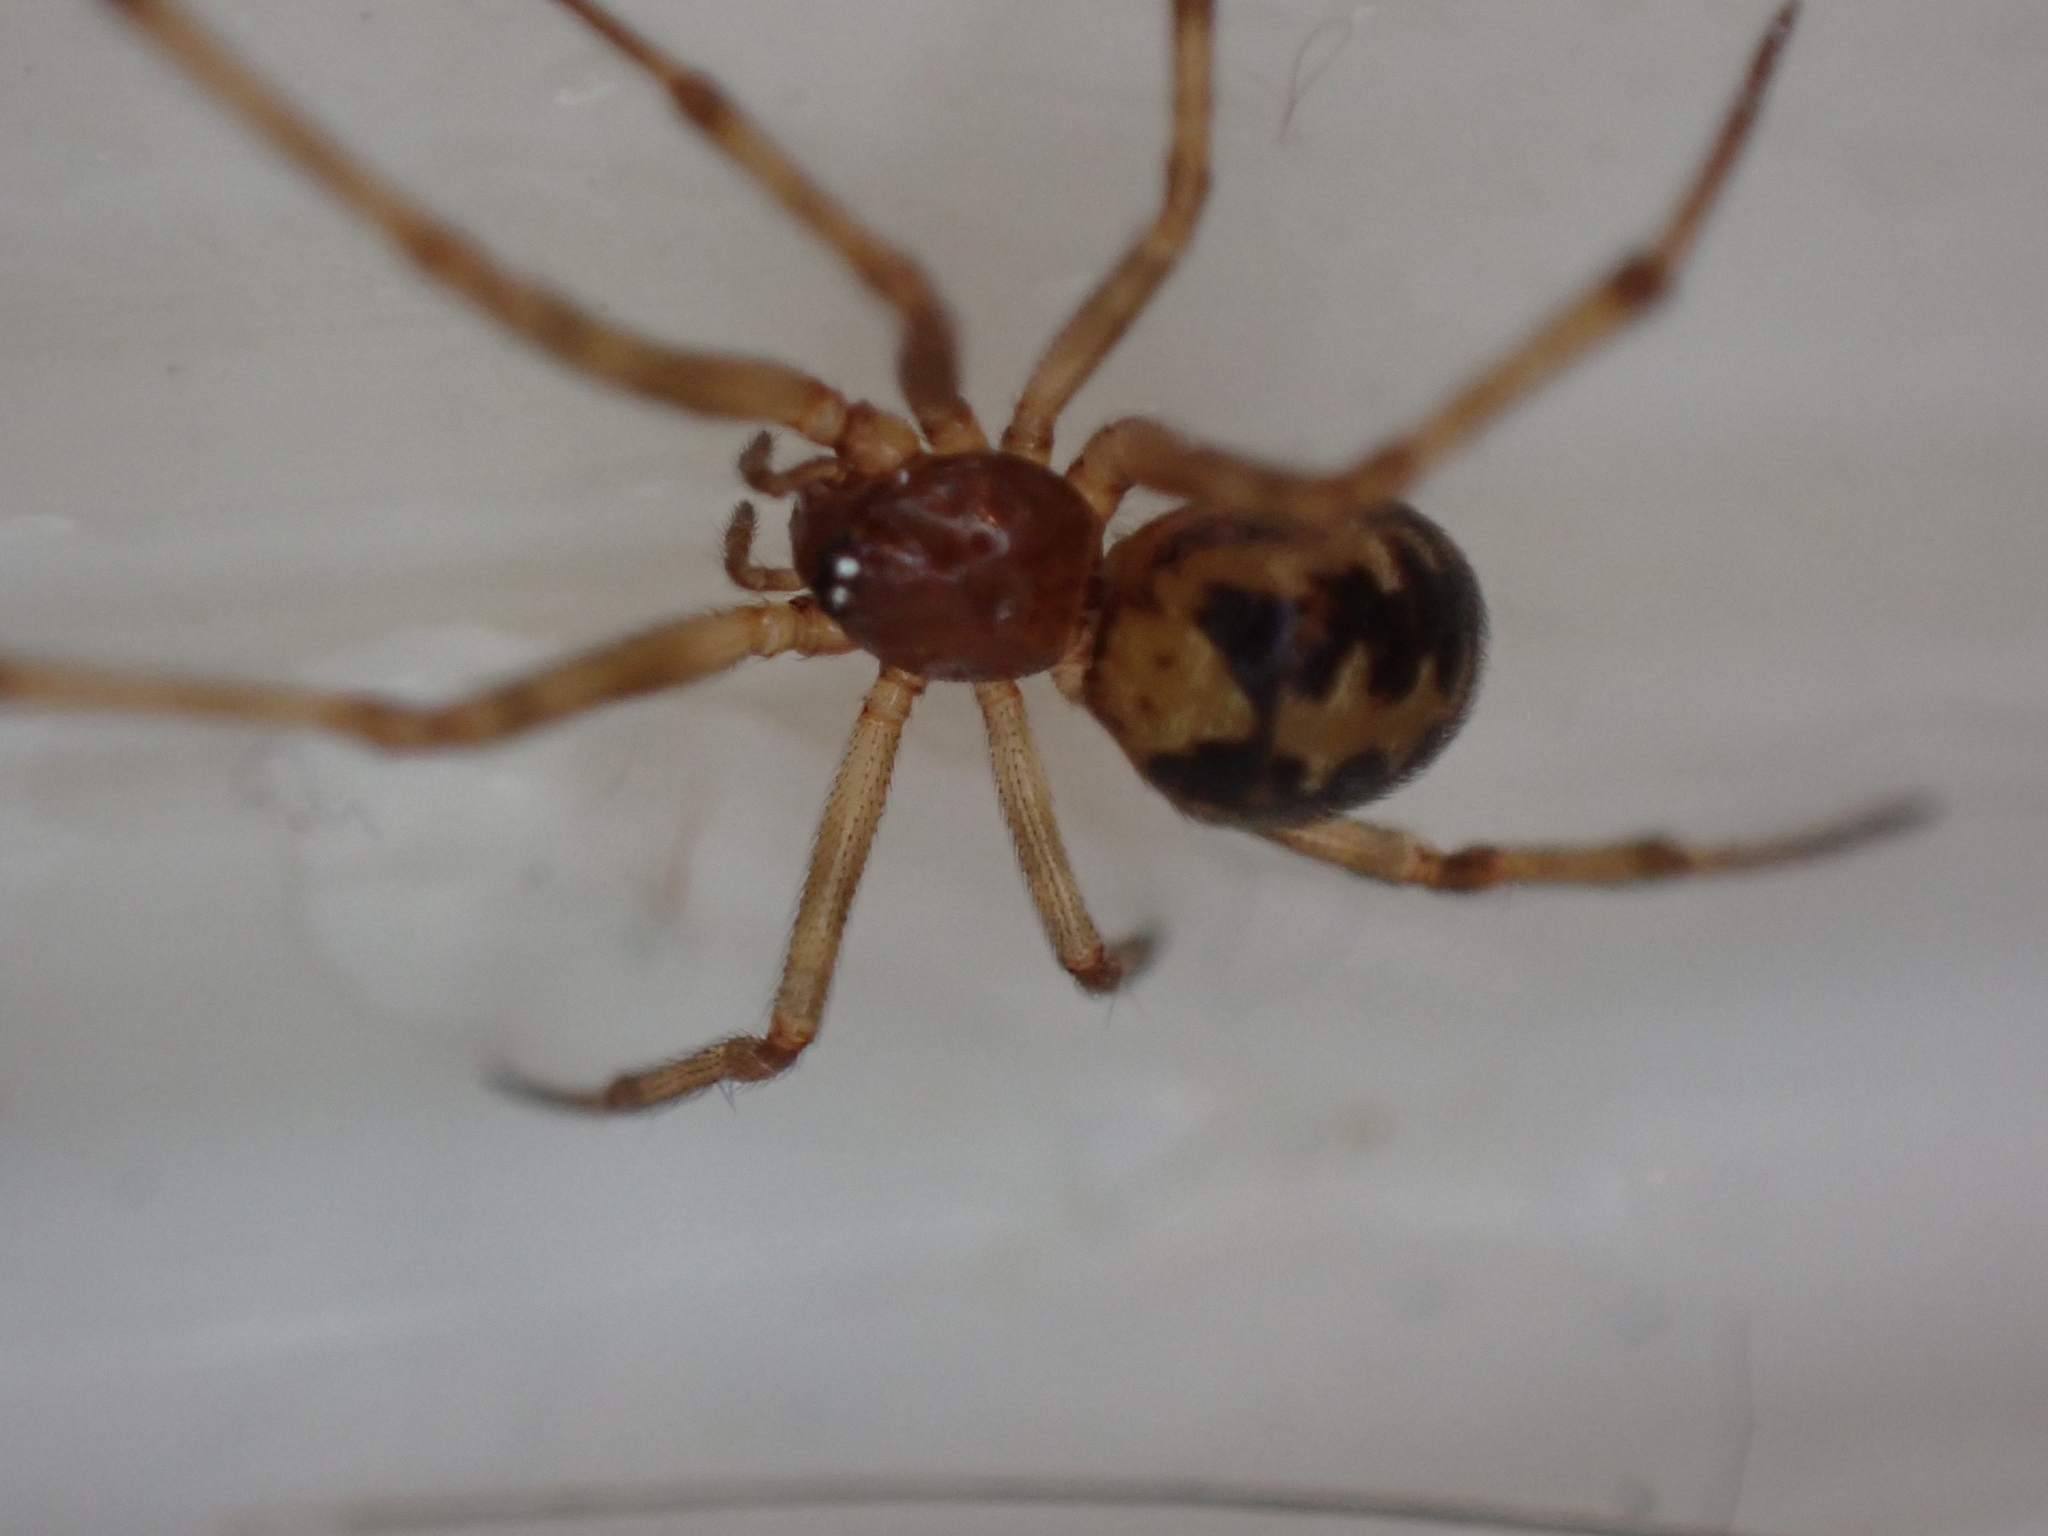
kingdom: Animalia
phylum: Arthropoda
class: Arachnida
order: Araneae
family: Theridiidae
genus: Steatoda
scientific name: Steatoda triangulosa
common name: Triangulate bud spider
